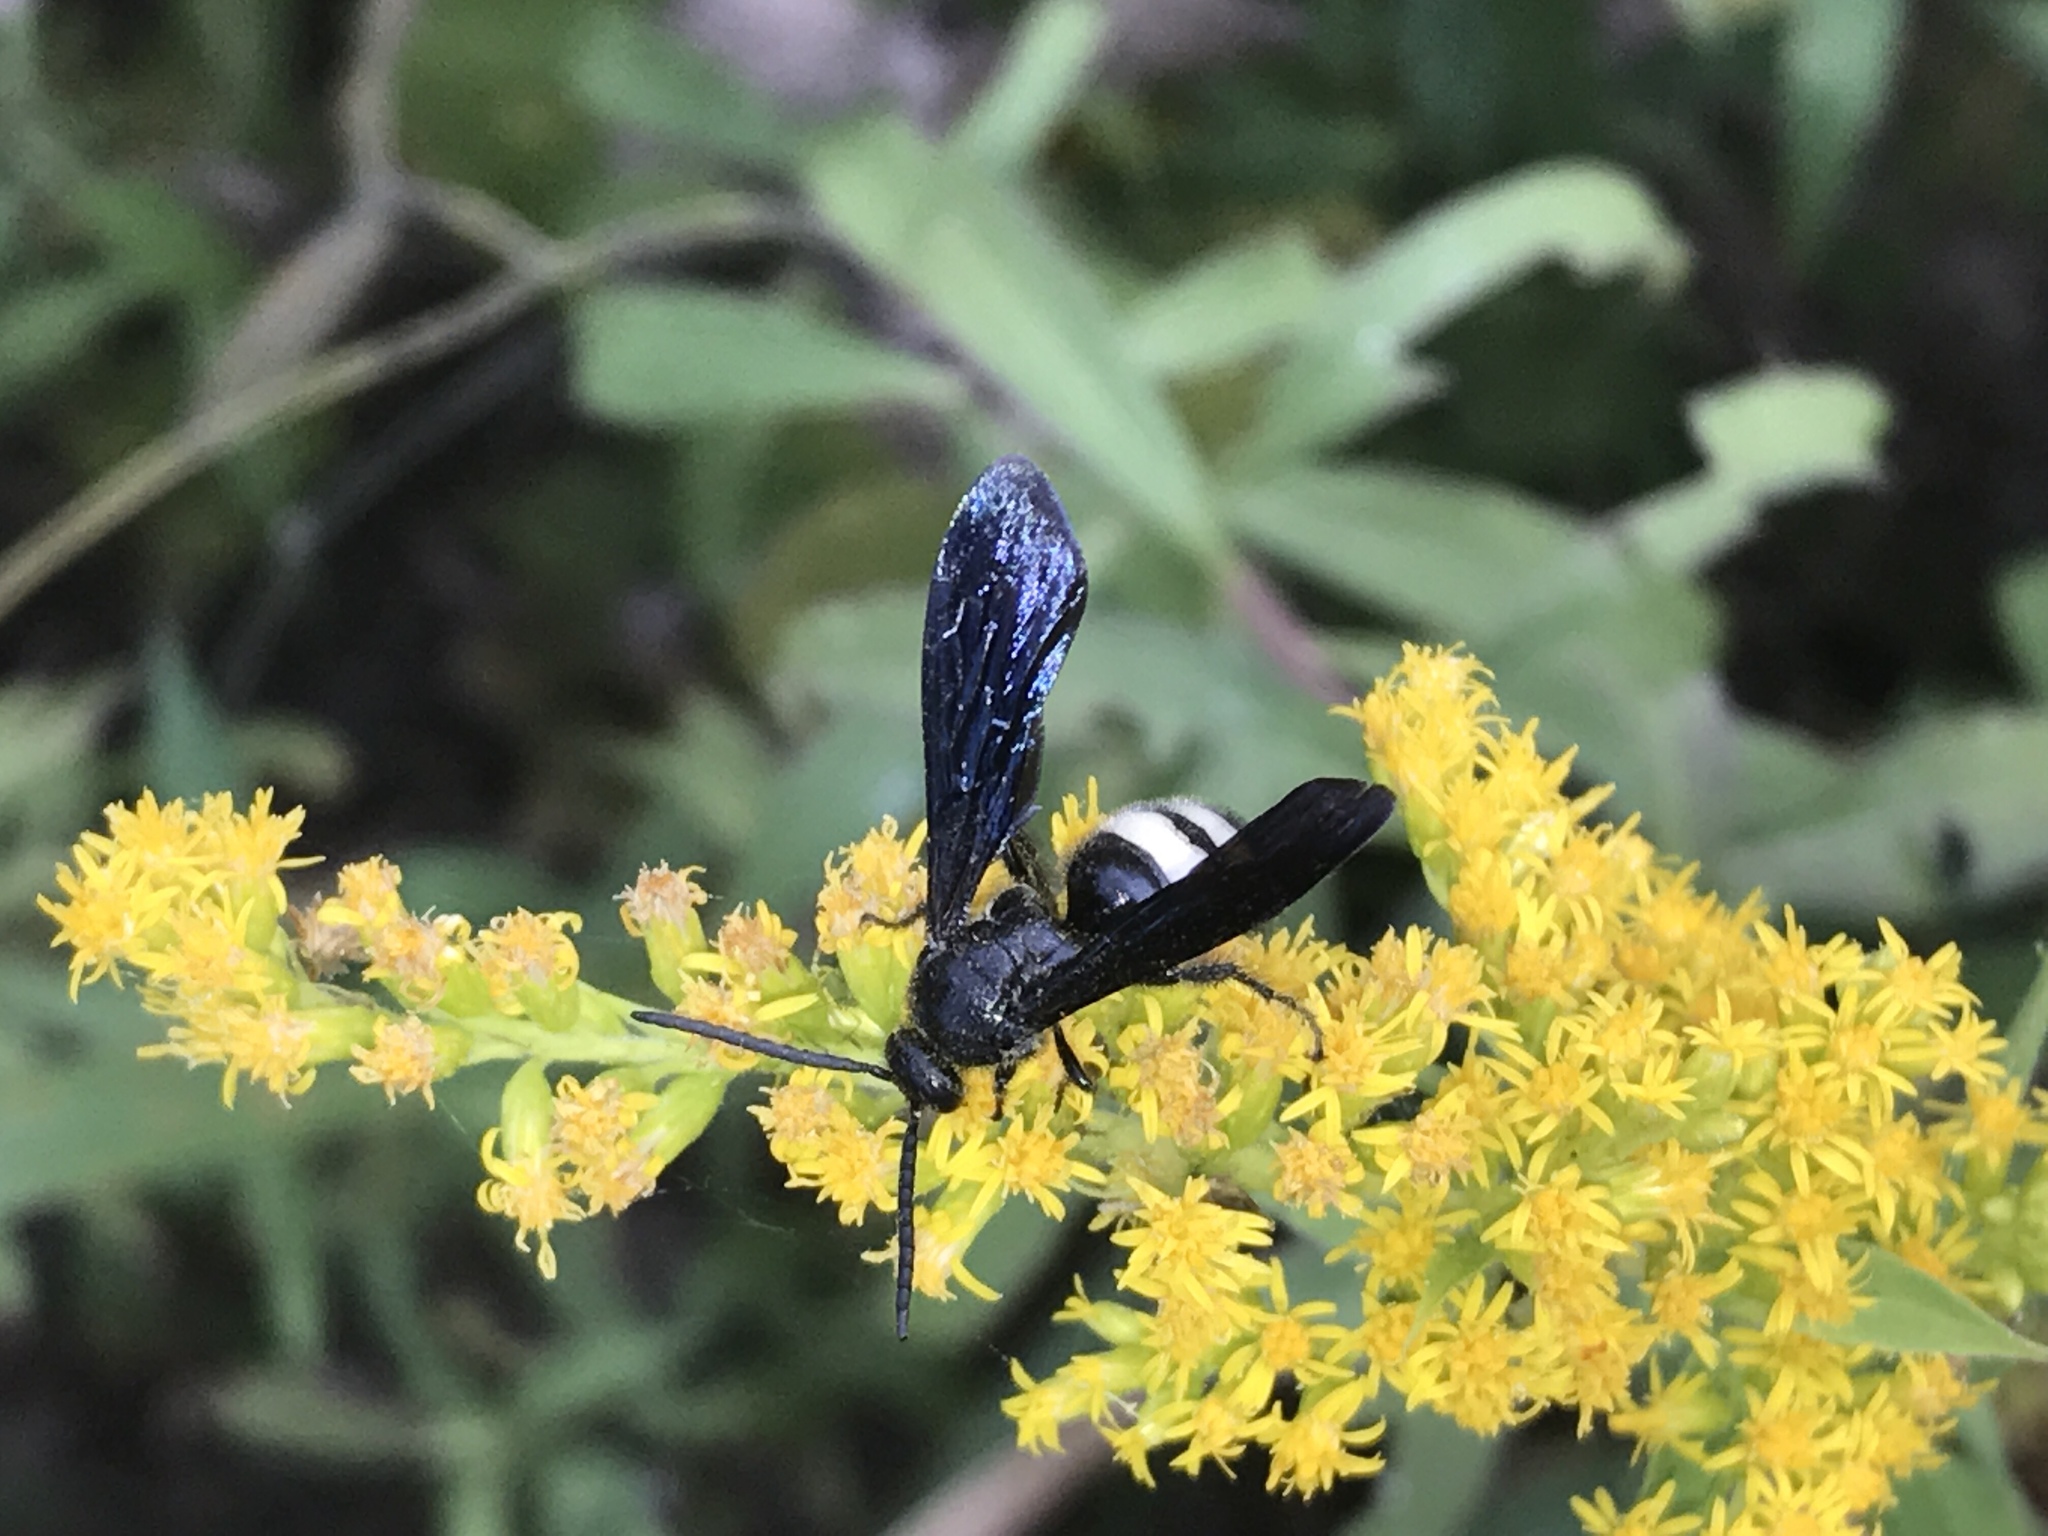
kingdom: Animalia
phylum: Arthropoda
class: Insecta
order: Hymenoptera
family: Scoliidae
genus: Scolia
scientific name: Scolia bicincta
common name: Double-banded scoliid wasp
